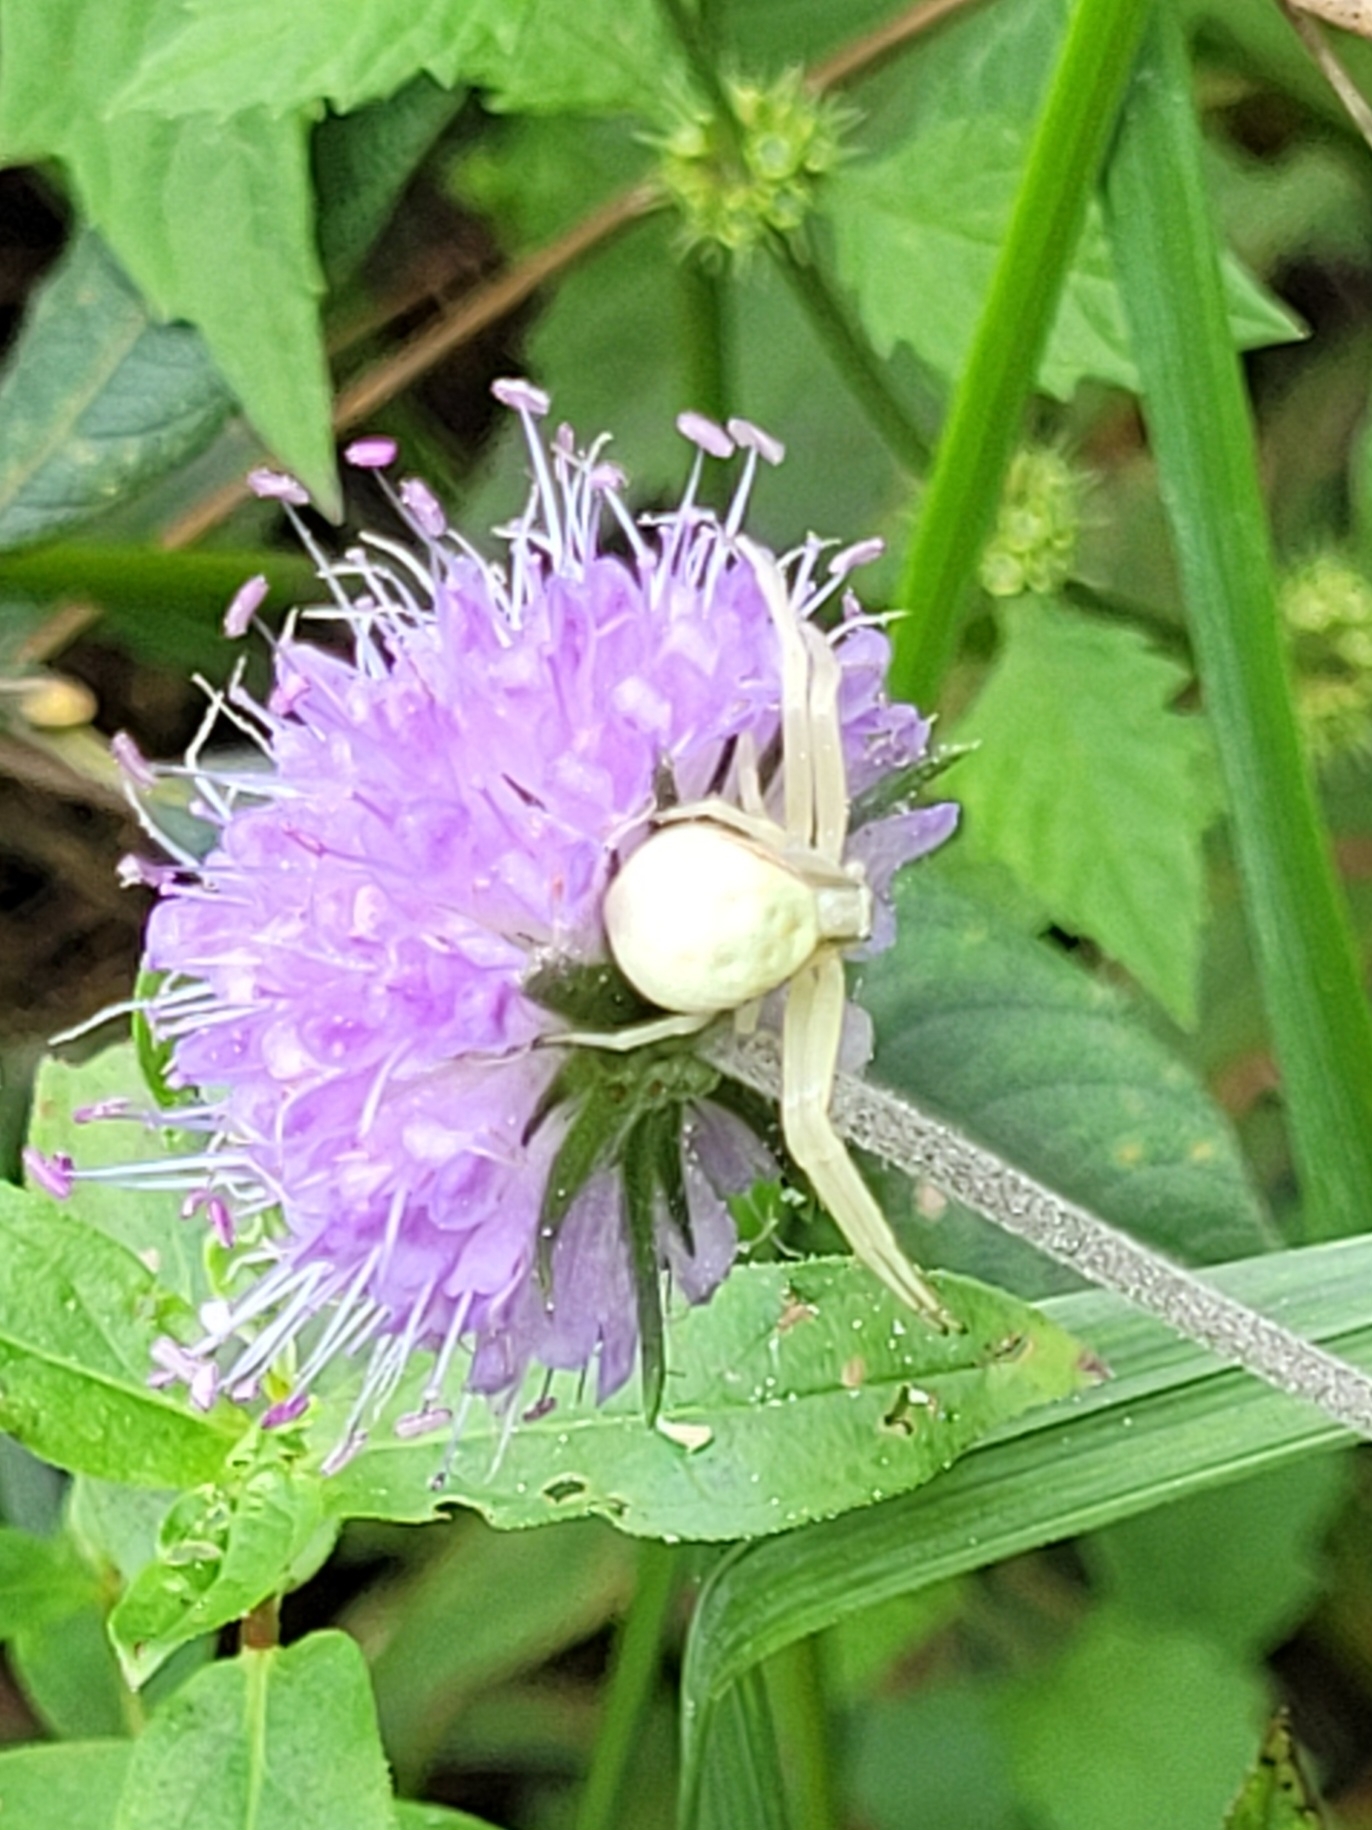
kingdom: Animalia
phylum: Arthropoda
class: Arachnida
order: Araneae
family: Thomisidae
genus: Misumena
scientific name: Misumena vatia
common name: Goldenrod crab spider
